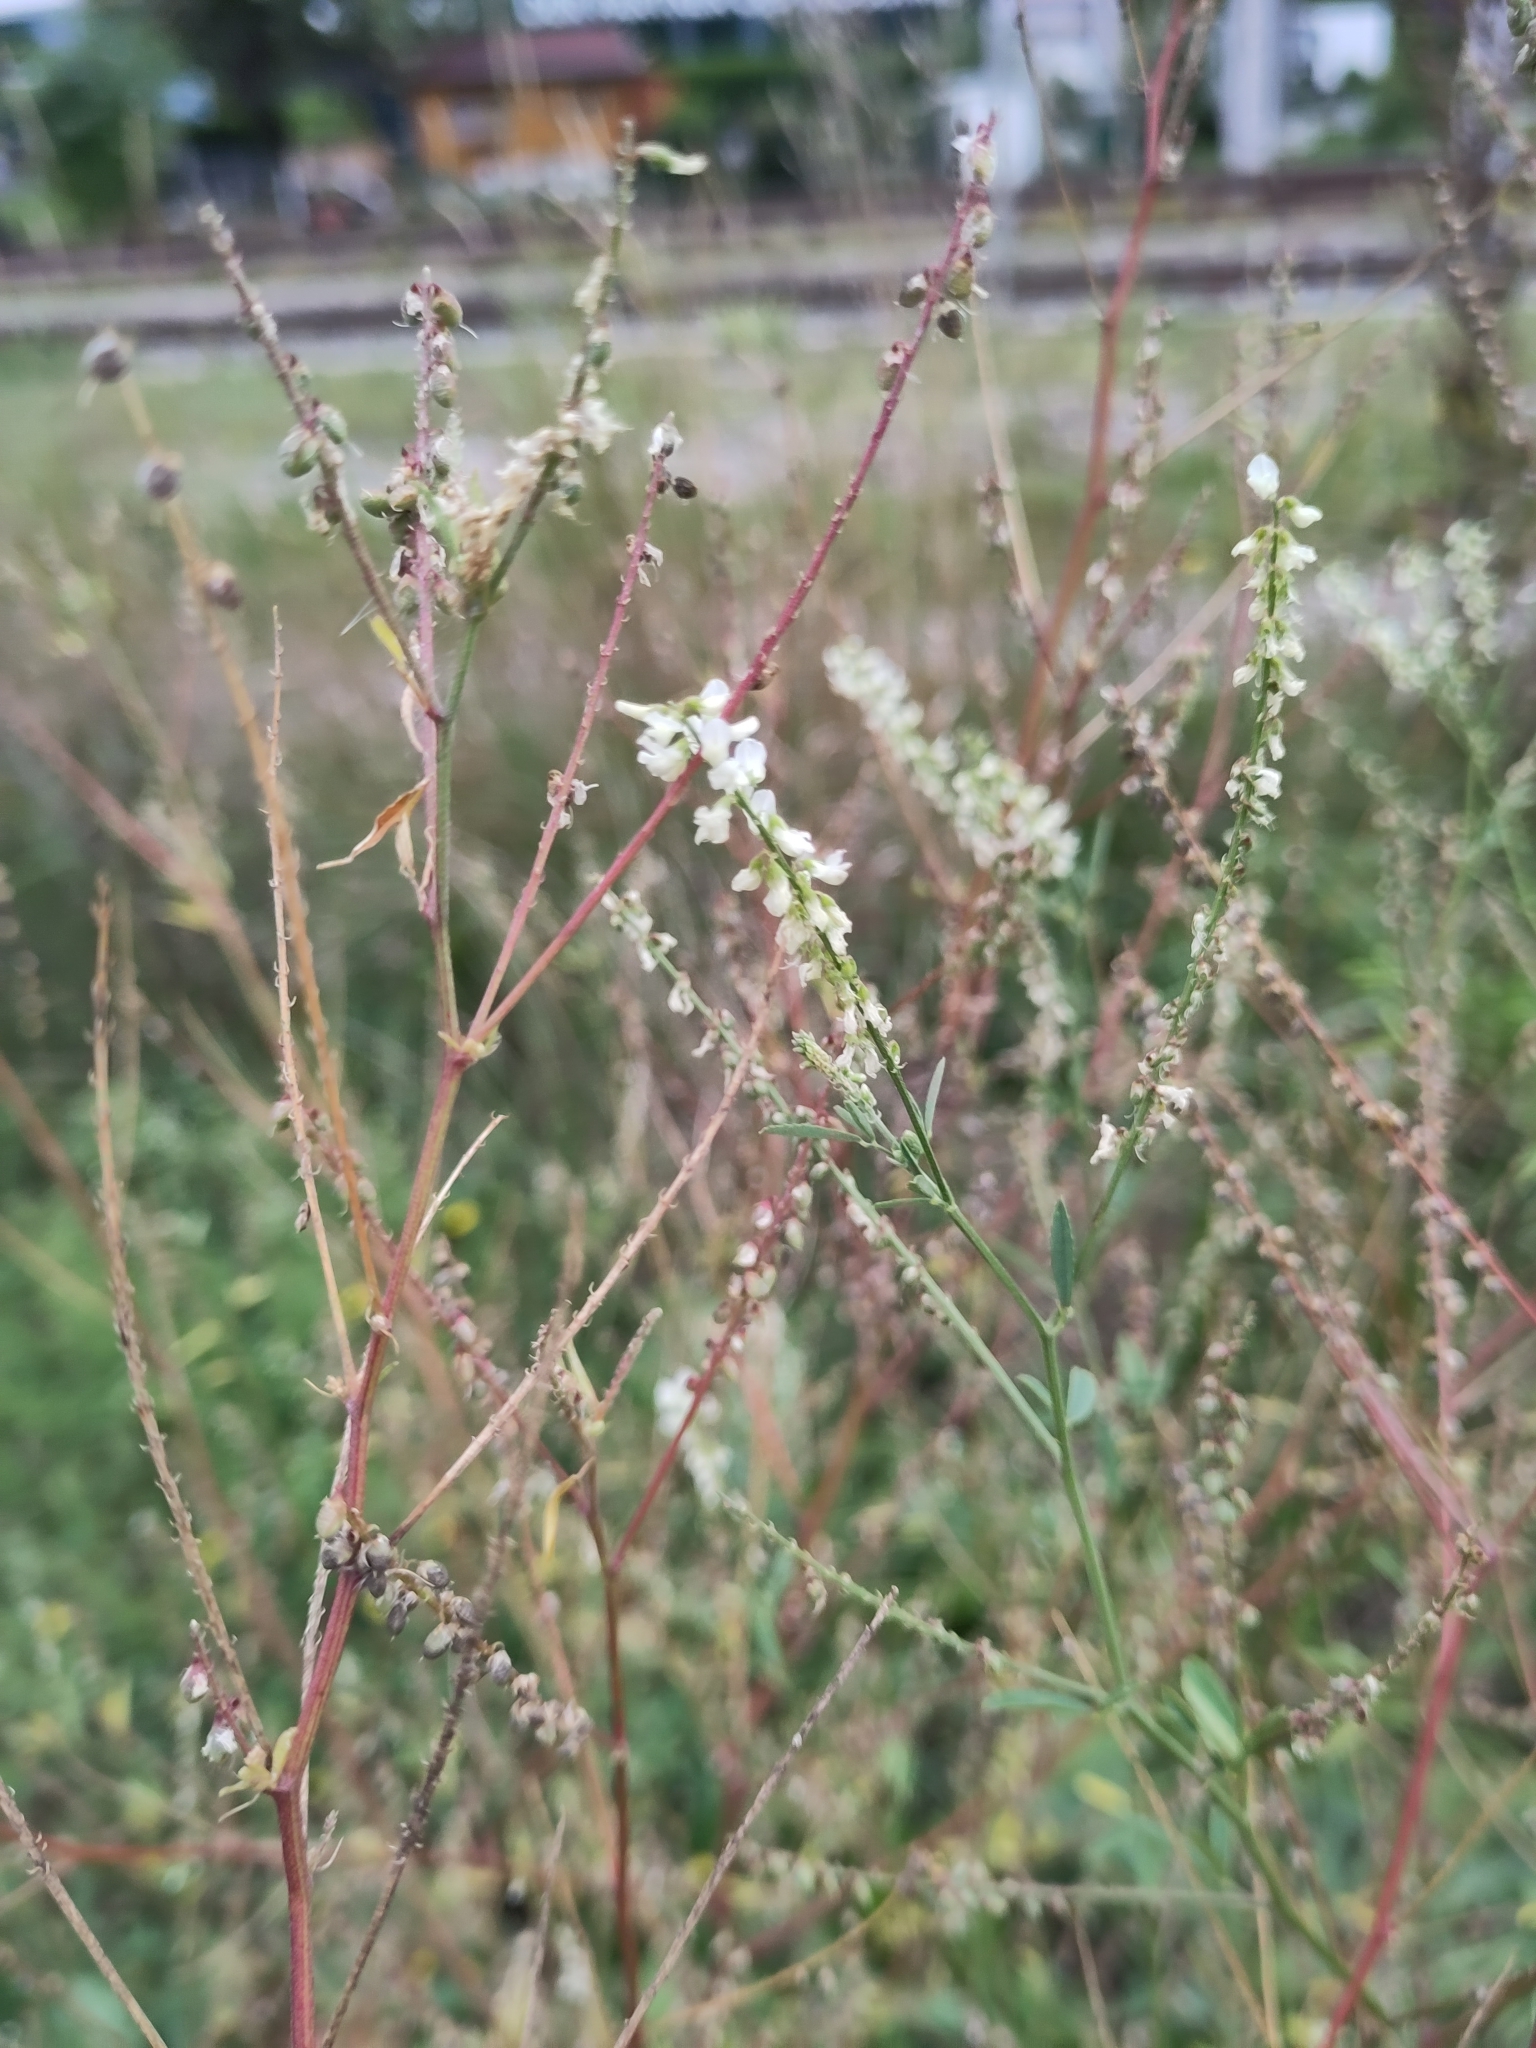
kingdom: Plantae
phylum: Tracheophyta
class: Magnoliopsida
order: Fabales
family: Fabaceae
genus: Melilotus
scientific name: Melilotus albus
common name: White melilot
